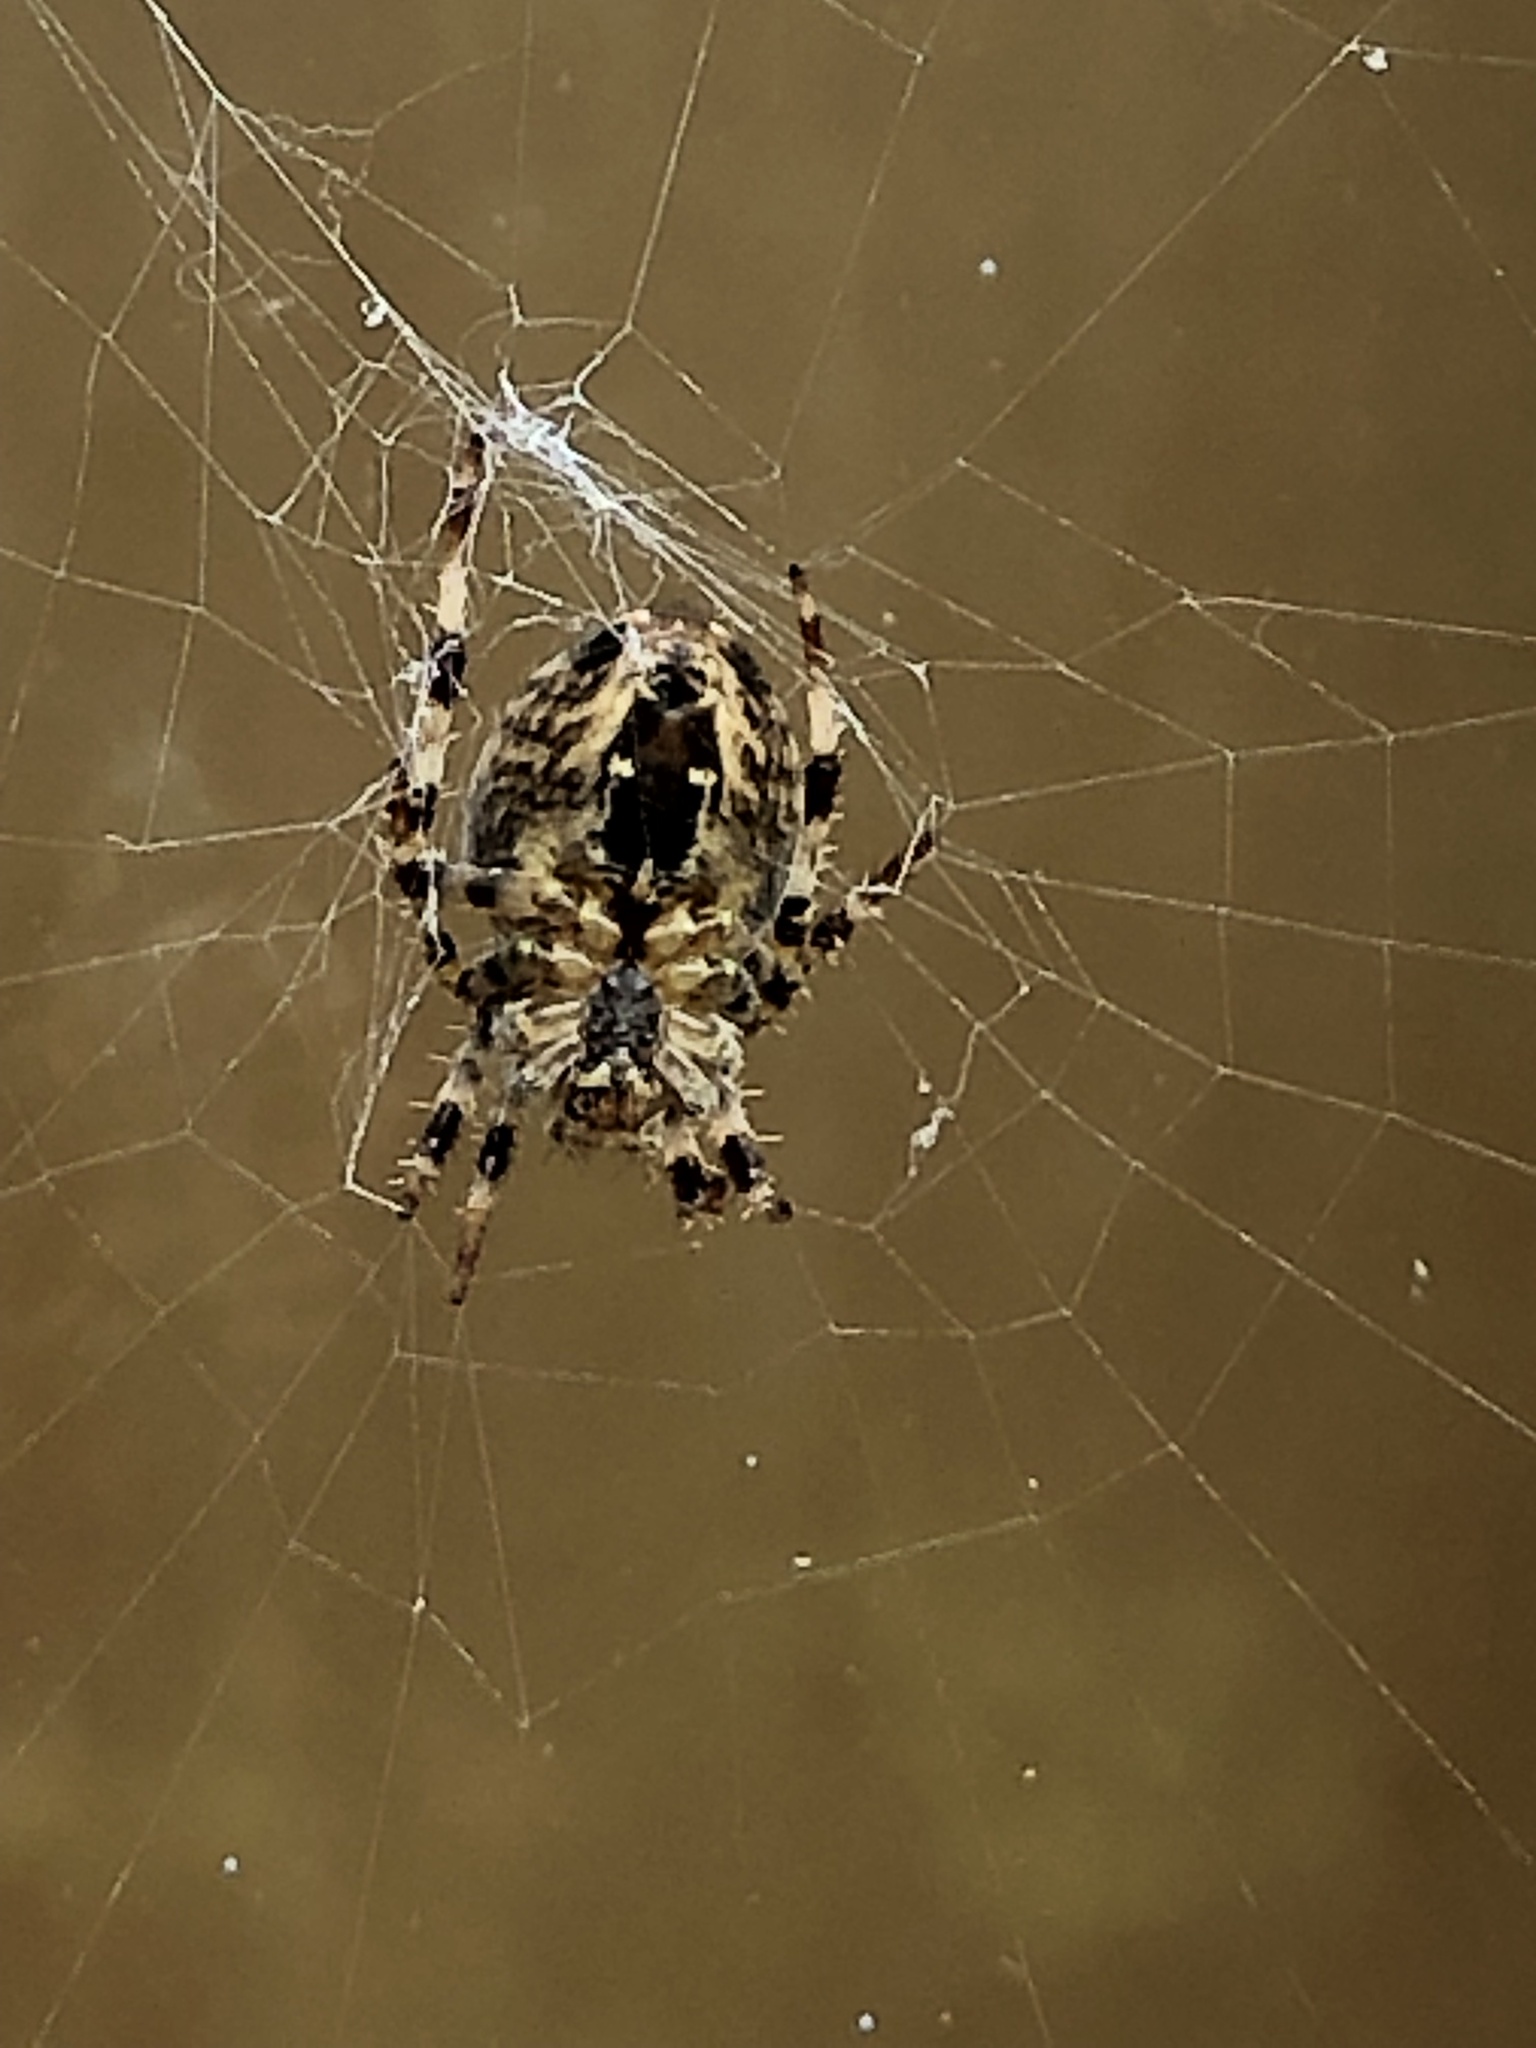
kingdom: Animalia
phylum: Arthropoda
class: Arachnida
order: Araneae
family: Araneidae
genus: Araneus
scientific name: Araneus diadematus
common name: Cross orbweaver
